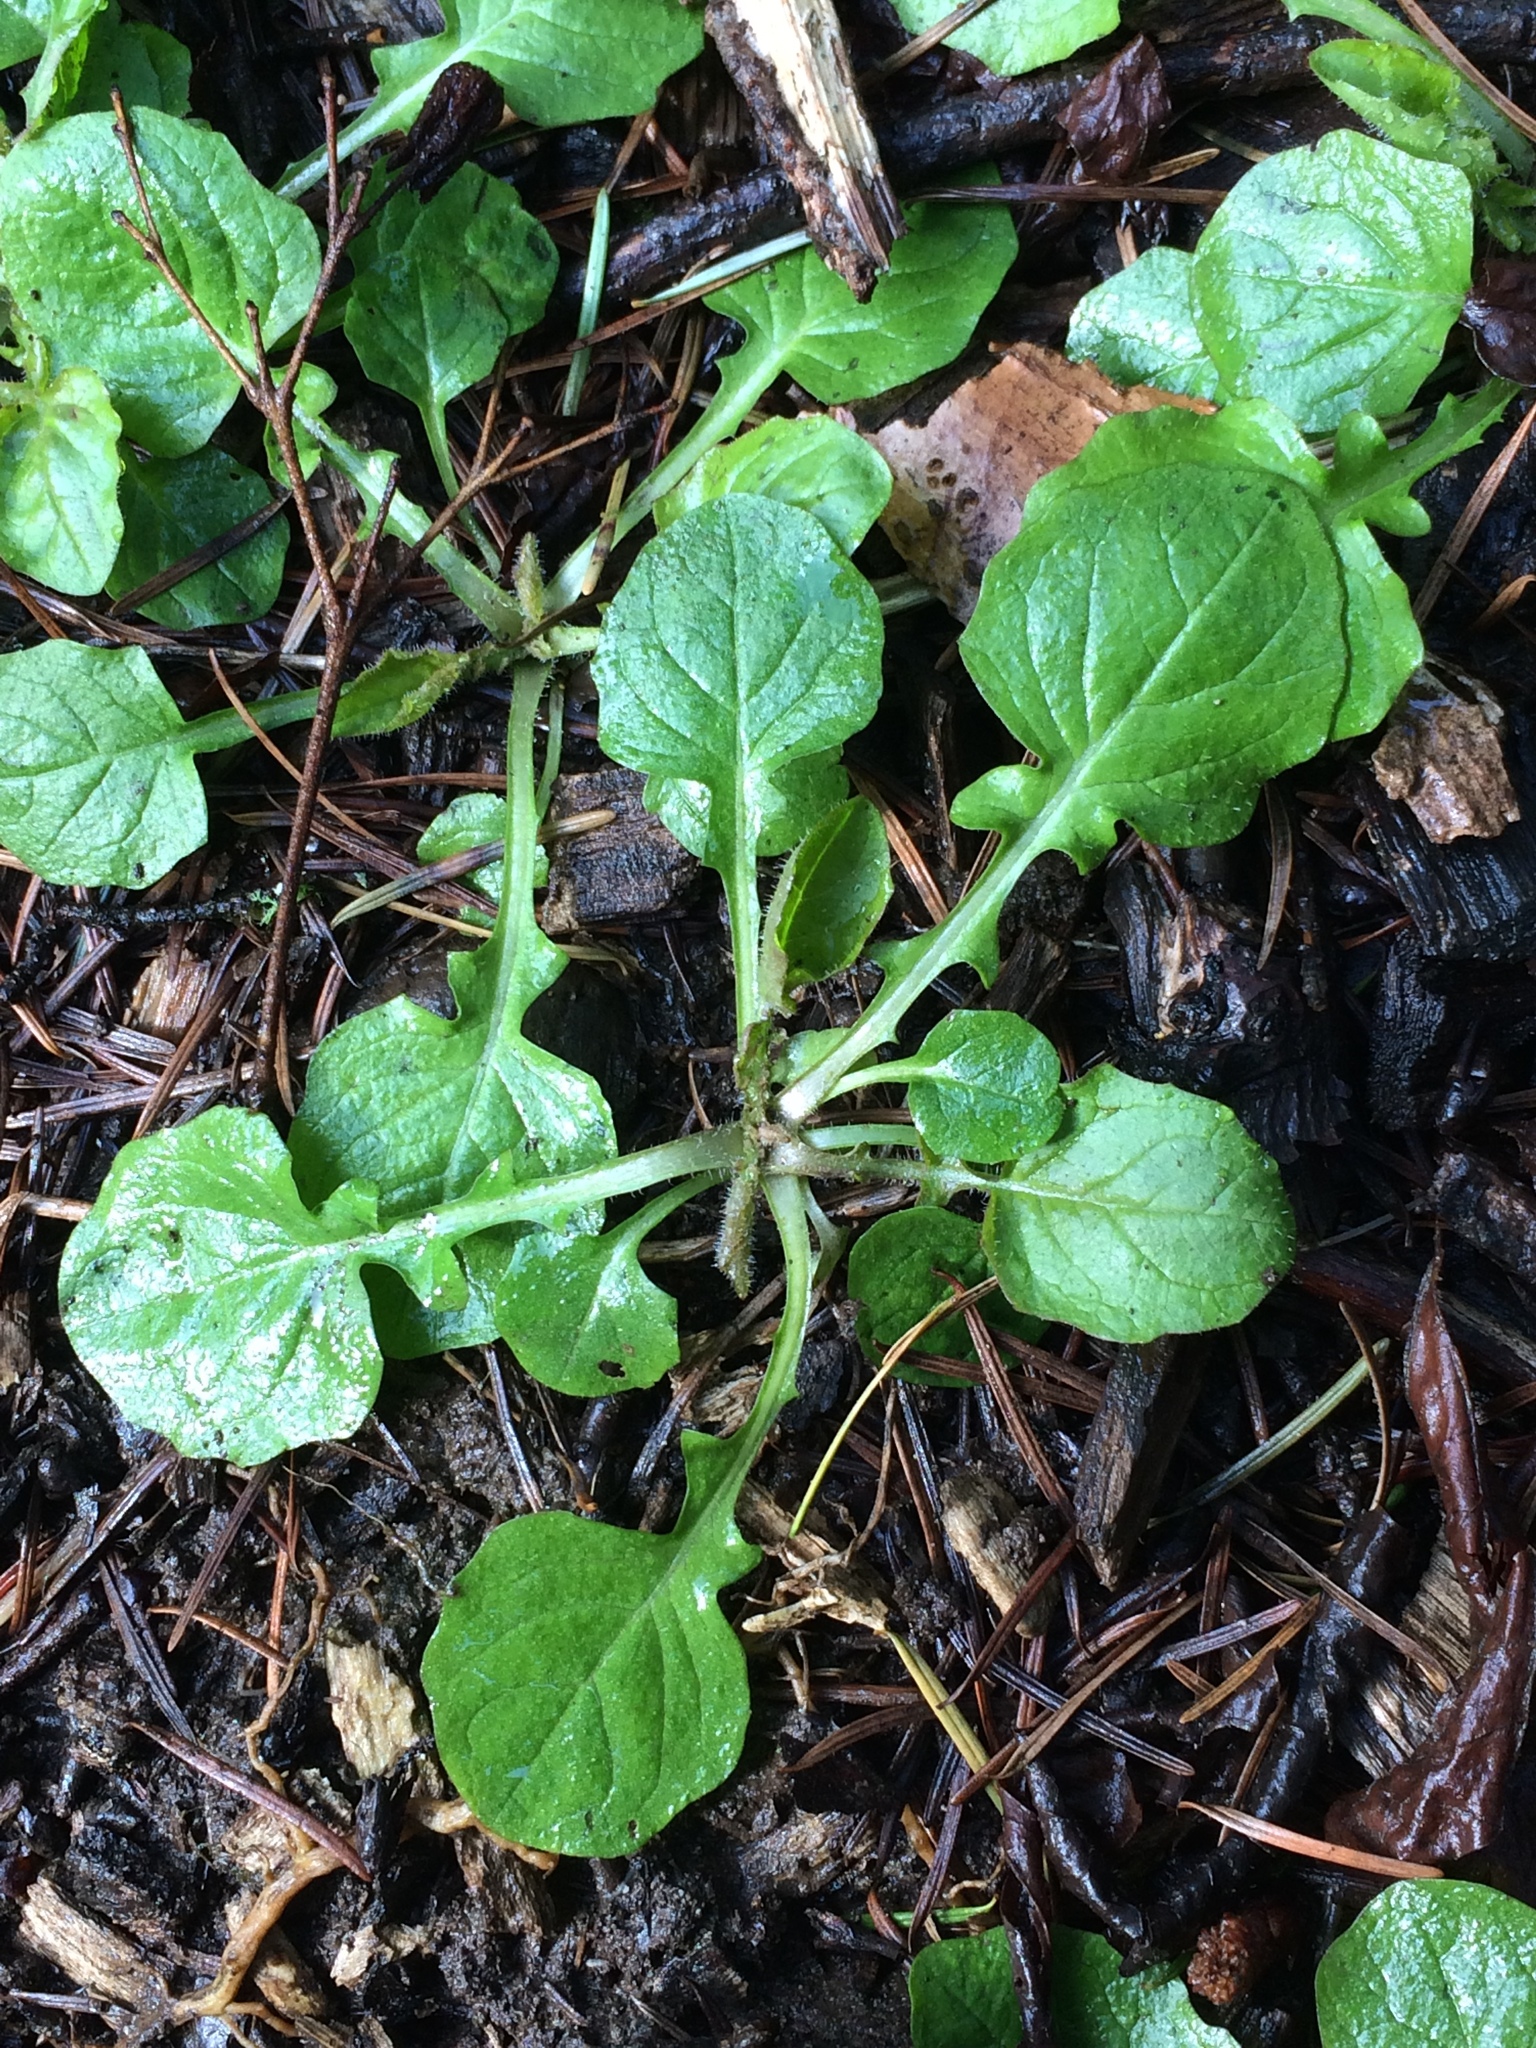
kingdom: Plantae
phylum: Tracheophyta
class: Magnoliopsida
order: Asterales
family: Asteraceae
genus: Lapsana
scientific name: Lapsana communis
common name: Nipplewort
